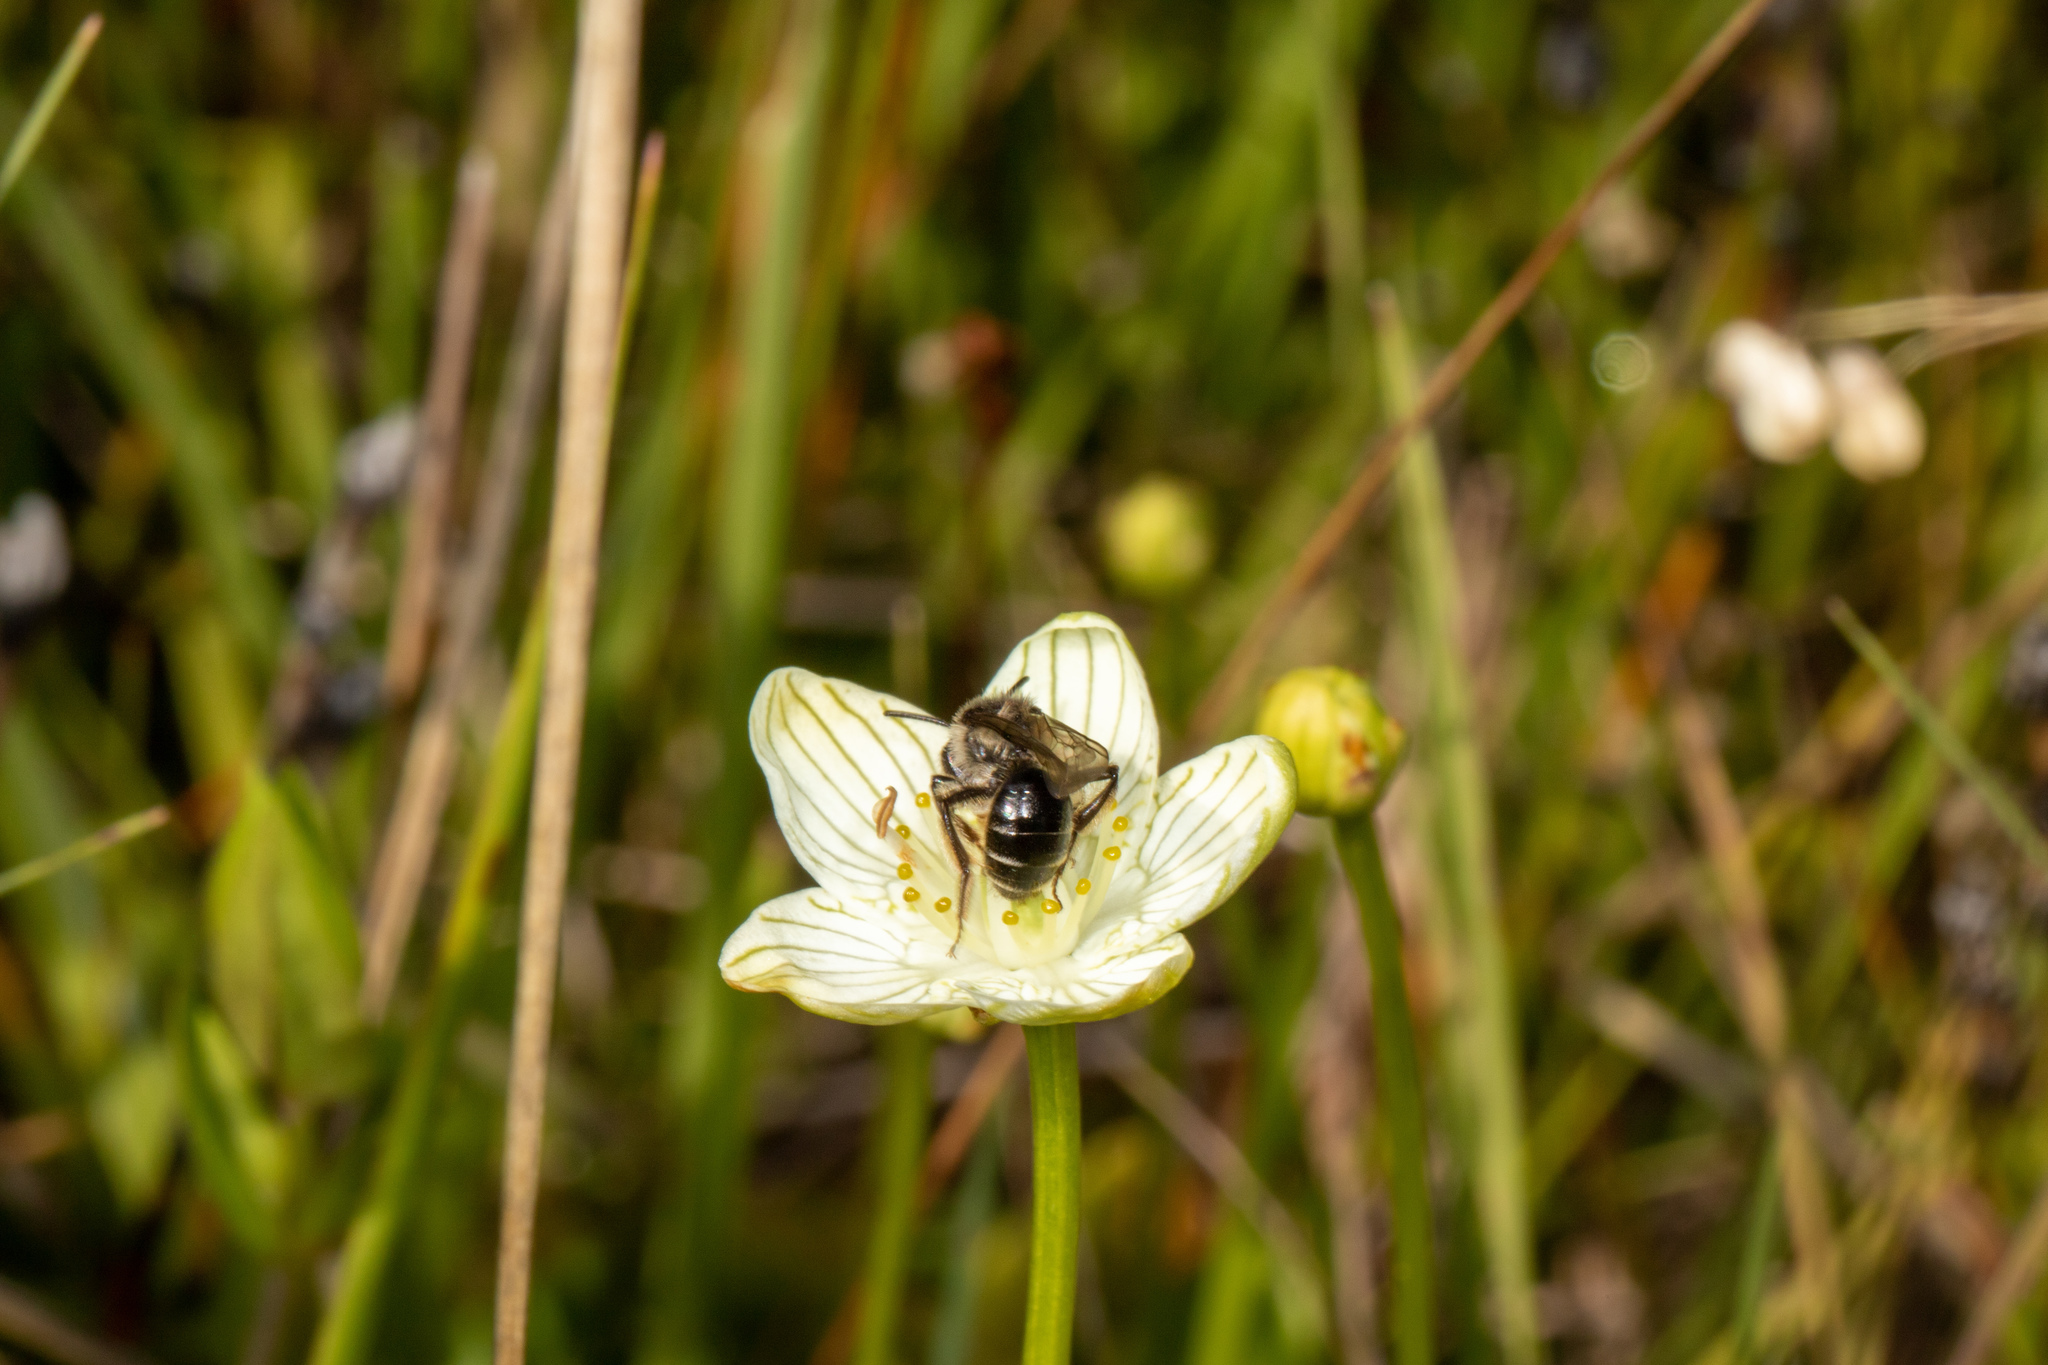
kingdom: Animalia
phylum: Arthropoda
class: Insecta
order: Hymenoptera
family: Andrenidae
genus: Andrena
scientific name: Andrena parnassiae
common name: Parnassia miner
